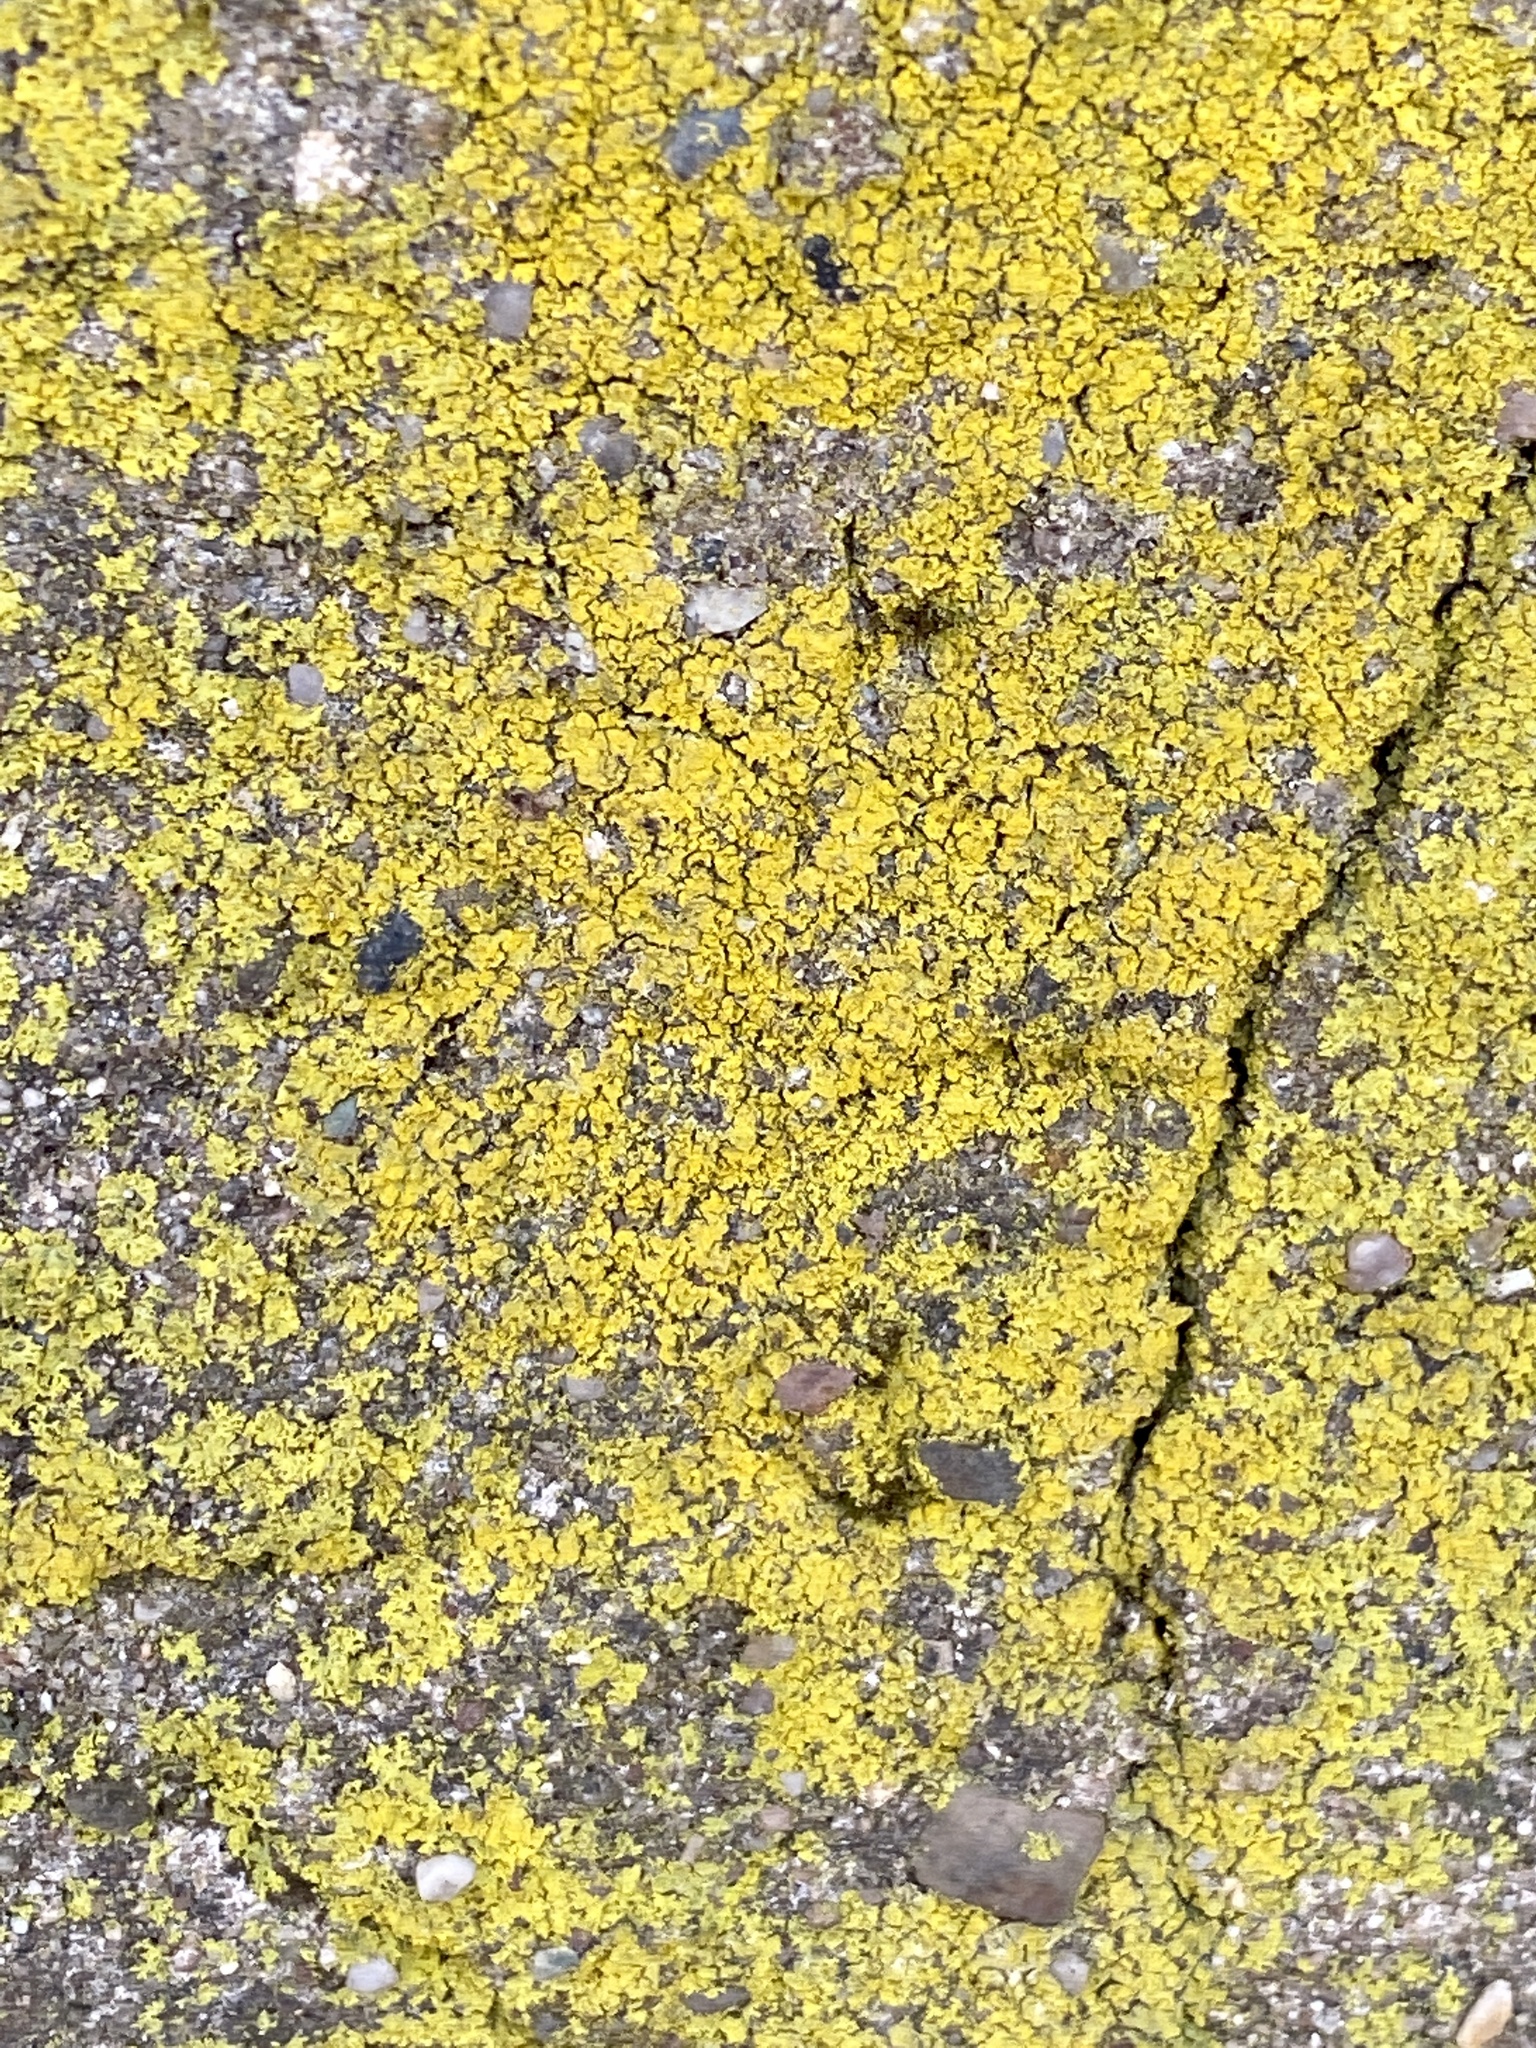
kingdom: Fungi
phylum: Ascomycota
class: Candelariomycetes
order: Candelariales
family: Candelariaceae
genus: Candelaria
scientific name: Candelaria concolor
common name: Candleflame lichen
